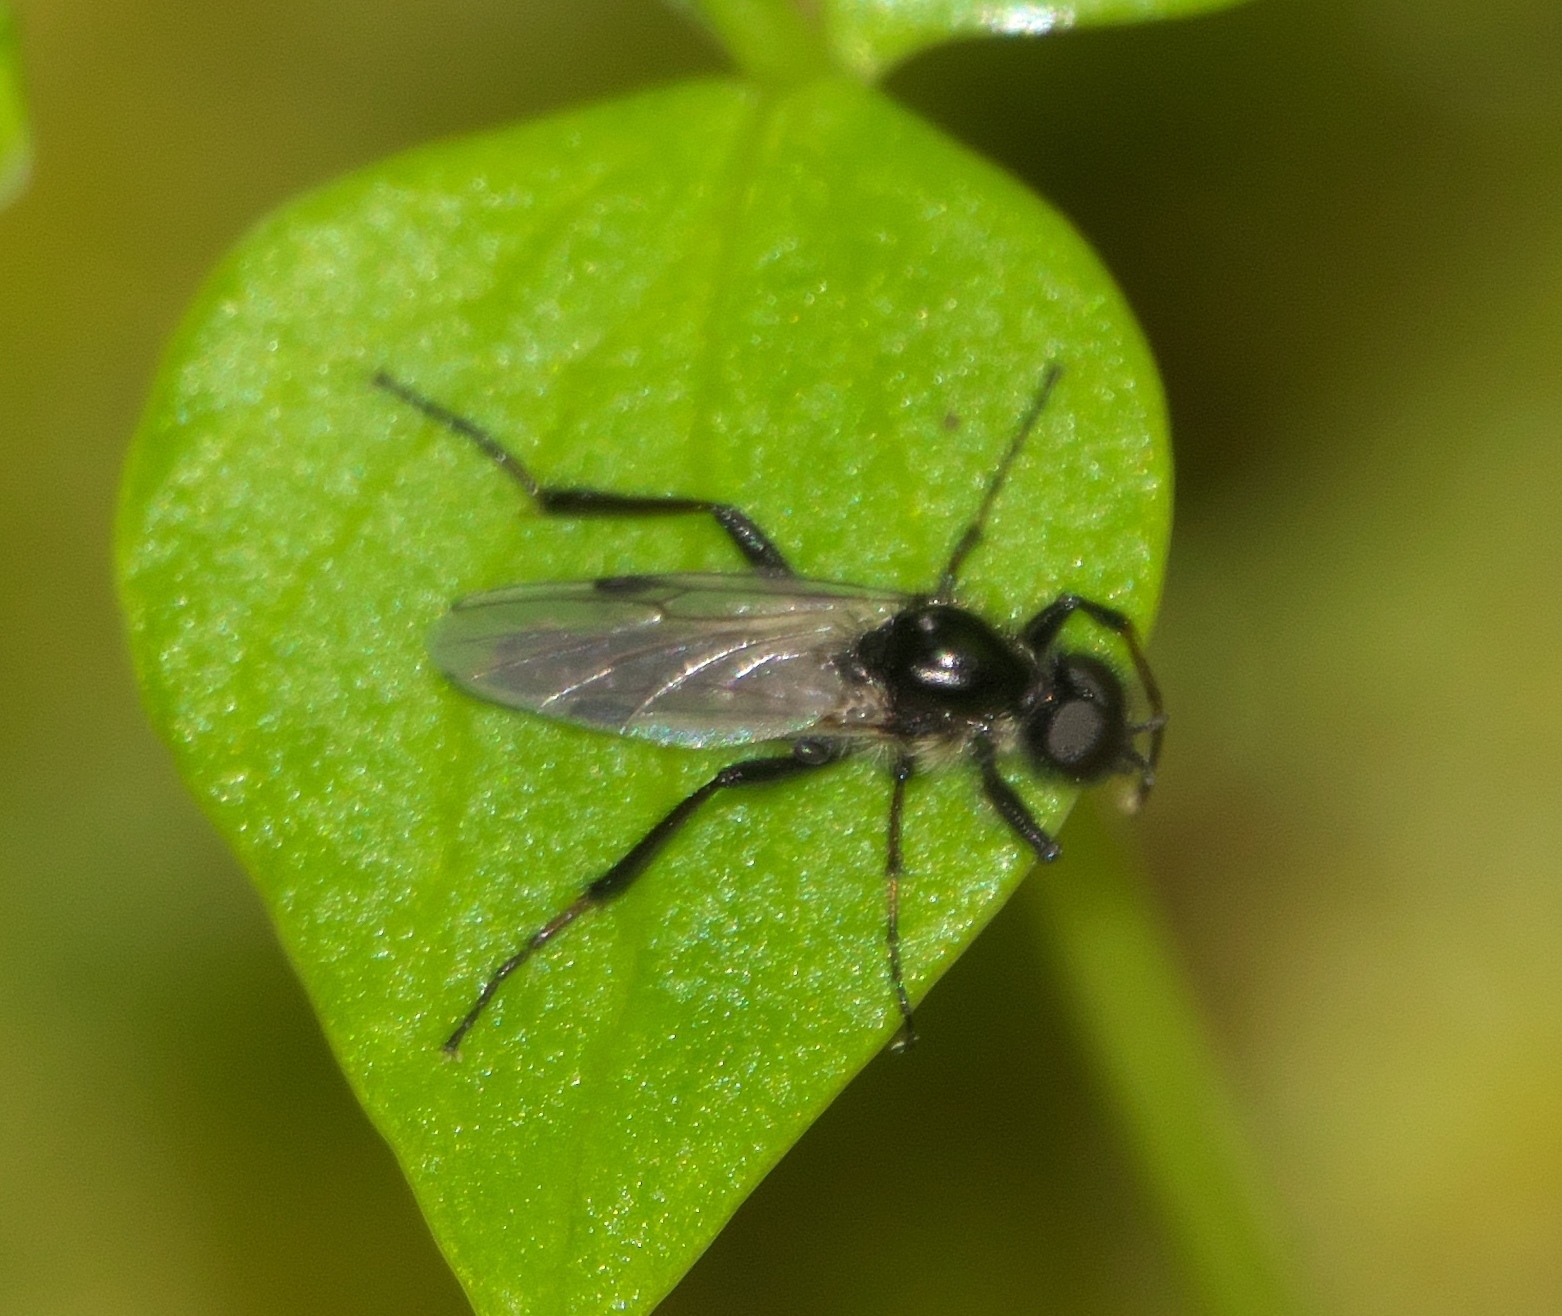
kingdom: Animalia
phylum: Arthropoda
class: Insecta
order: Diptera
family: Bibionidae
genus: Bibio
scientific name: Bibio
